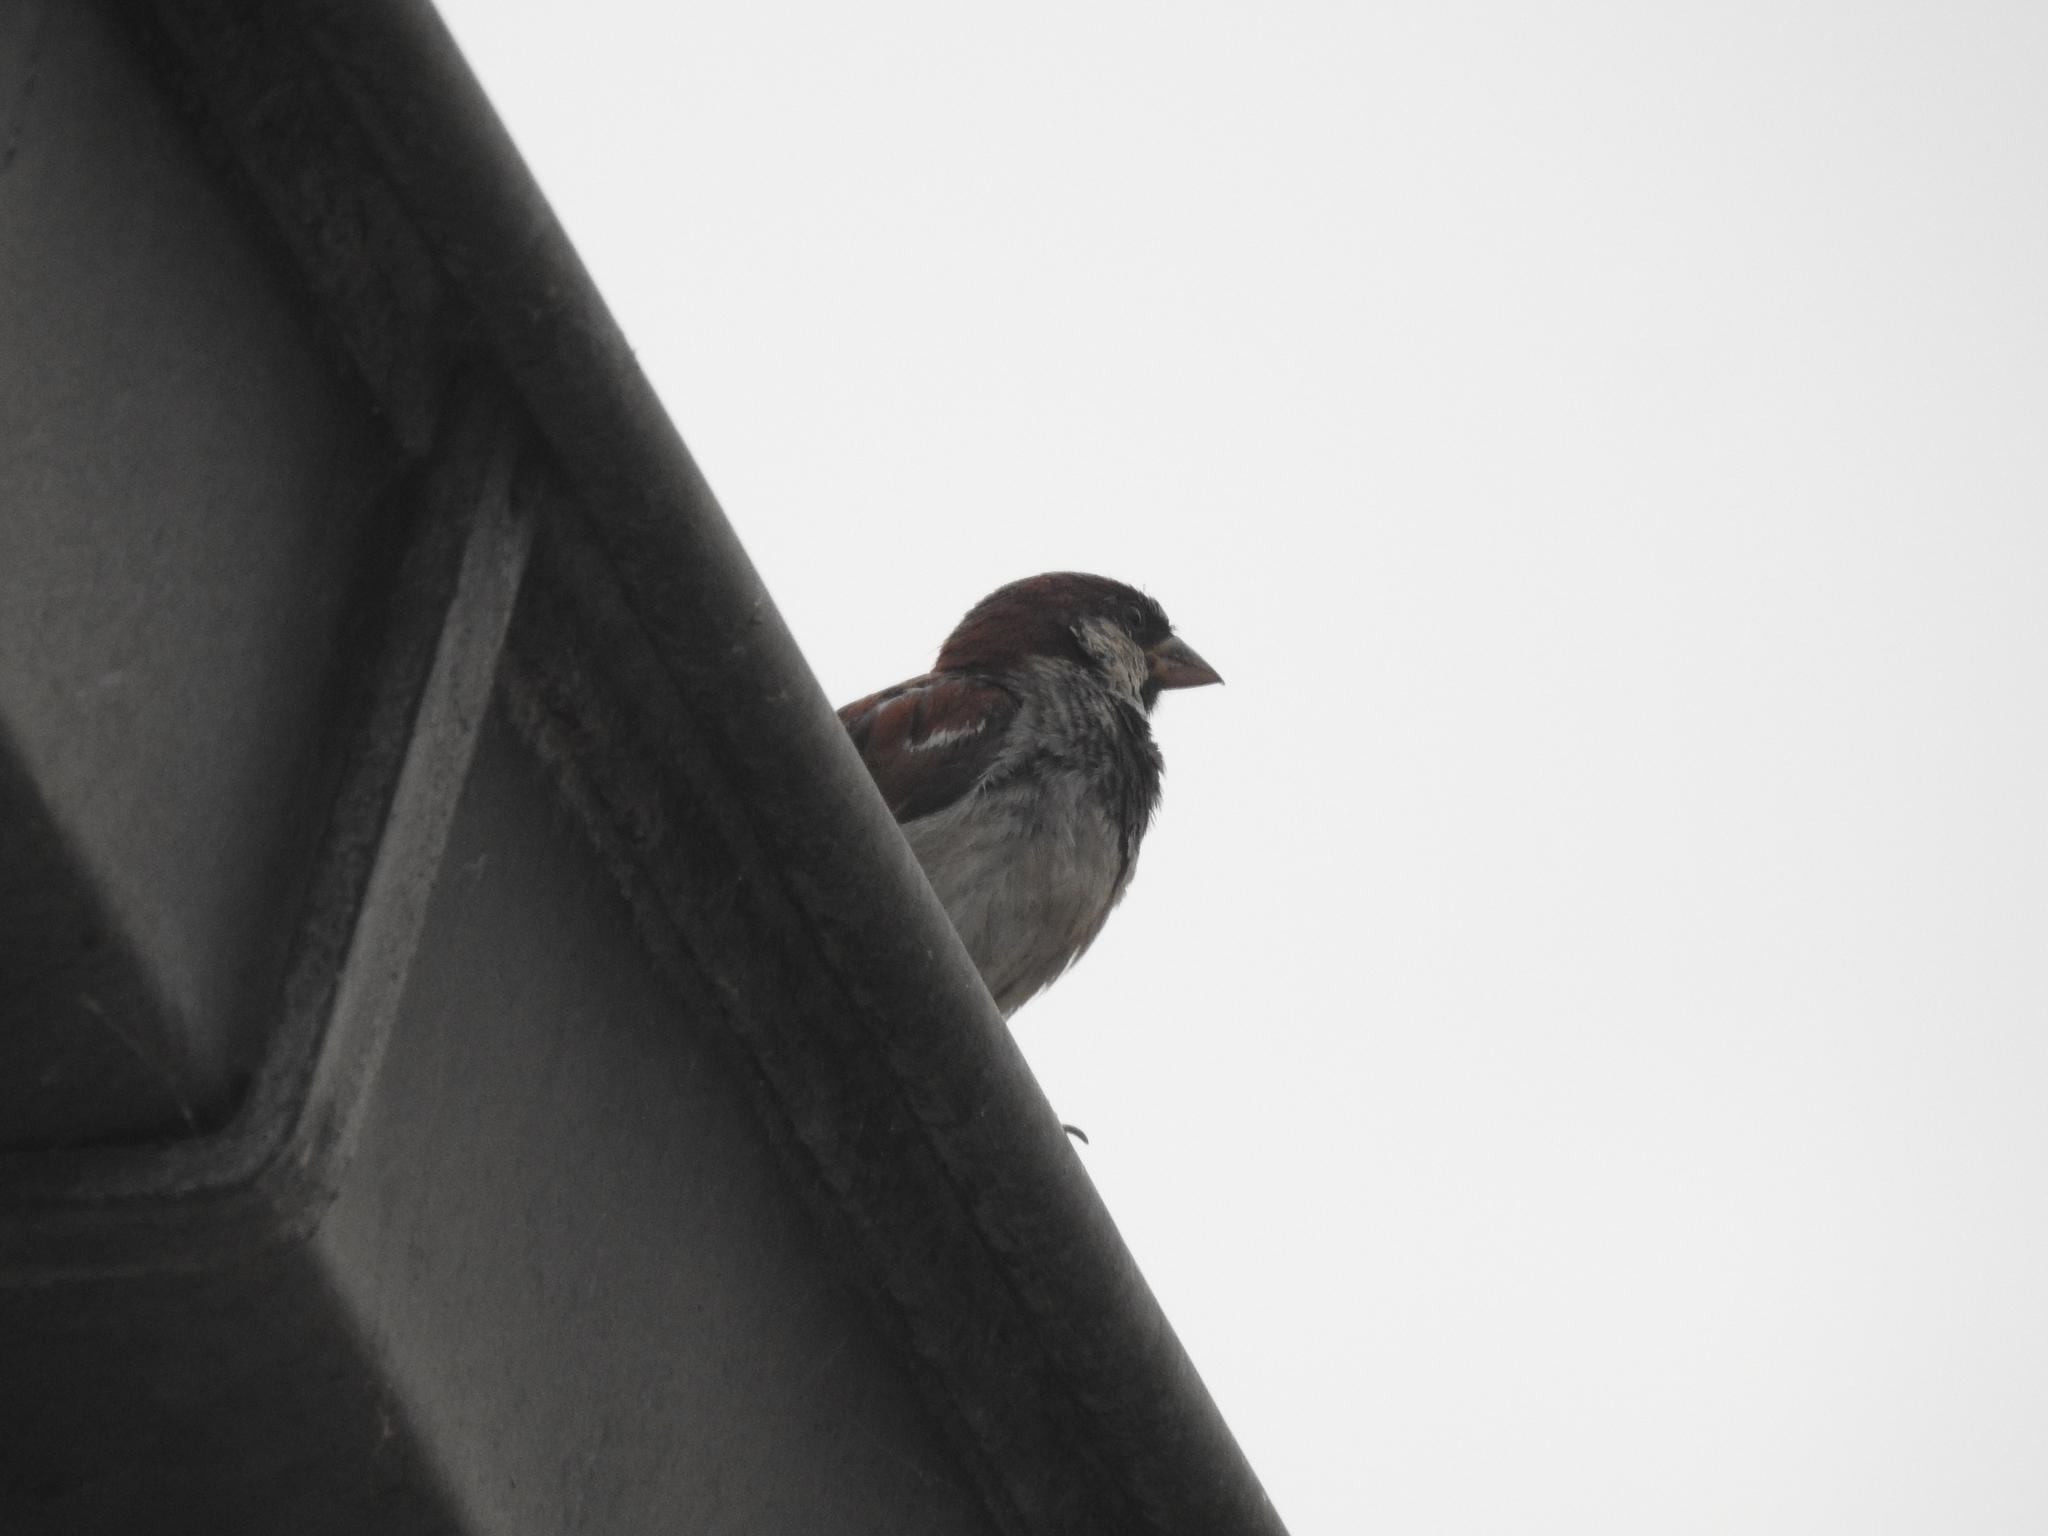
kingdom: Animalia
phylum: Chordata
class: Aves
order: Passeriformes
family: Passeridae
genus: Passer
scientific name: Passer domesticus
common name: House sparrow
